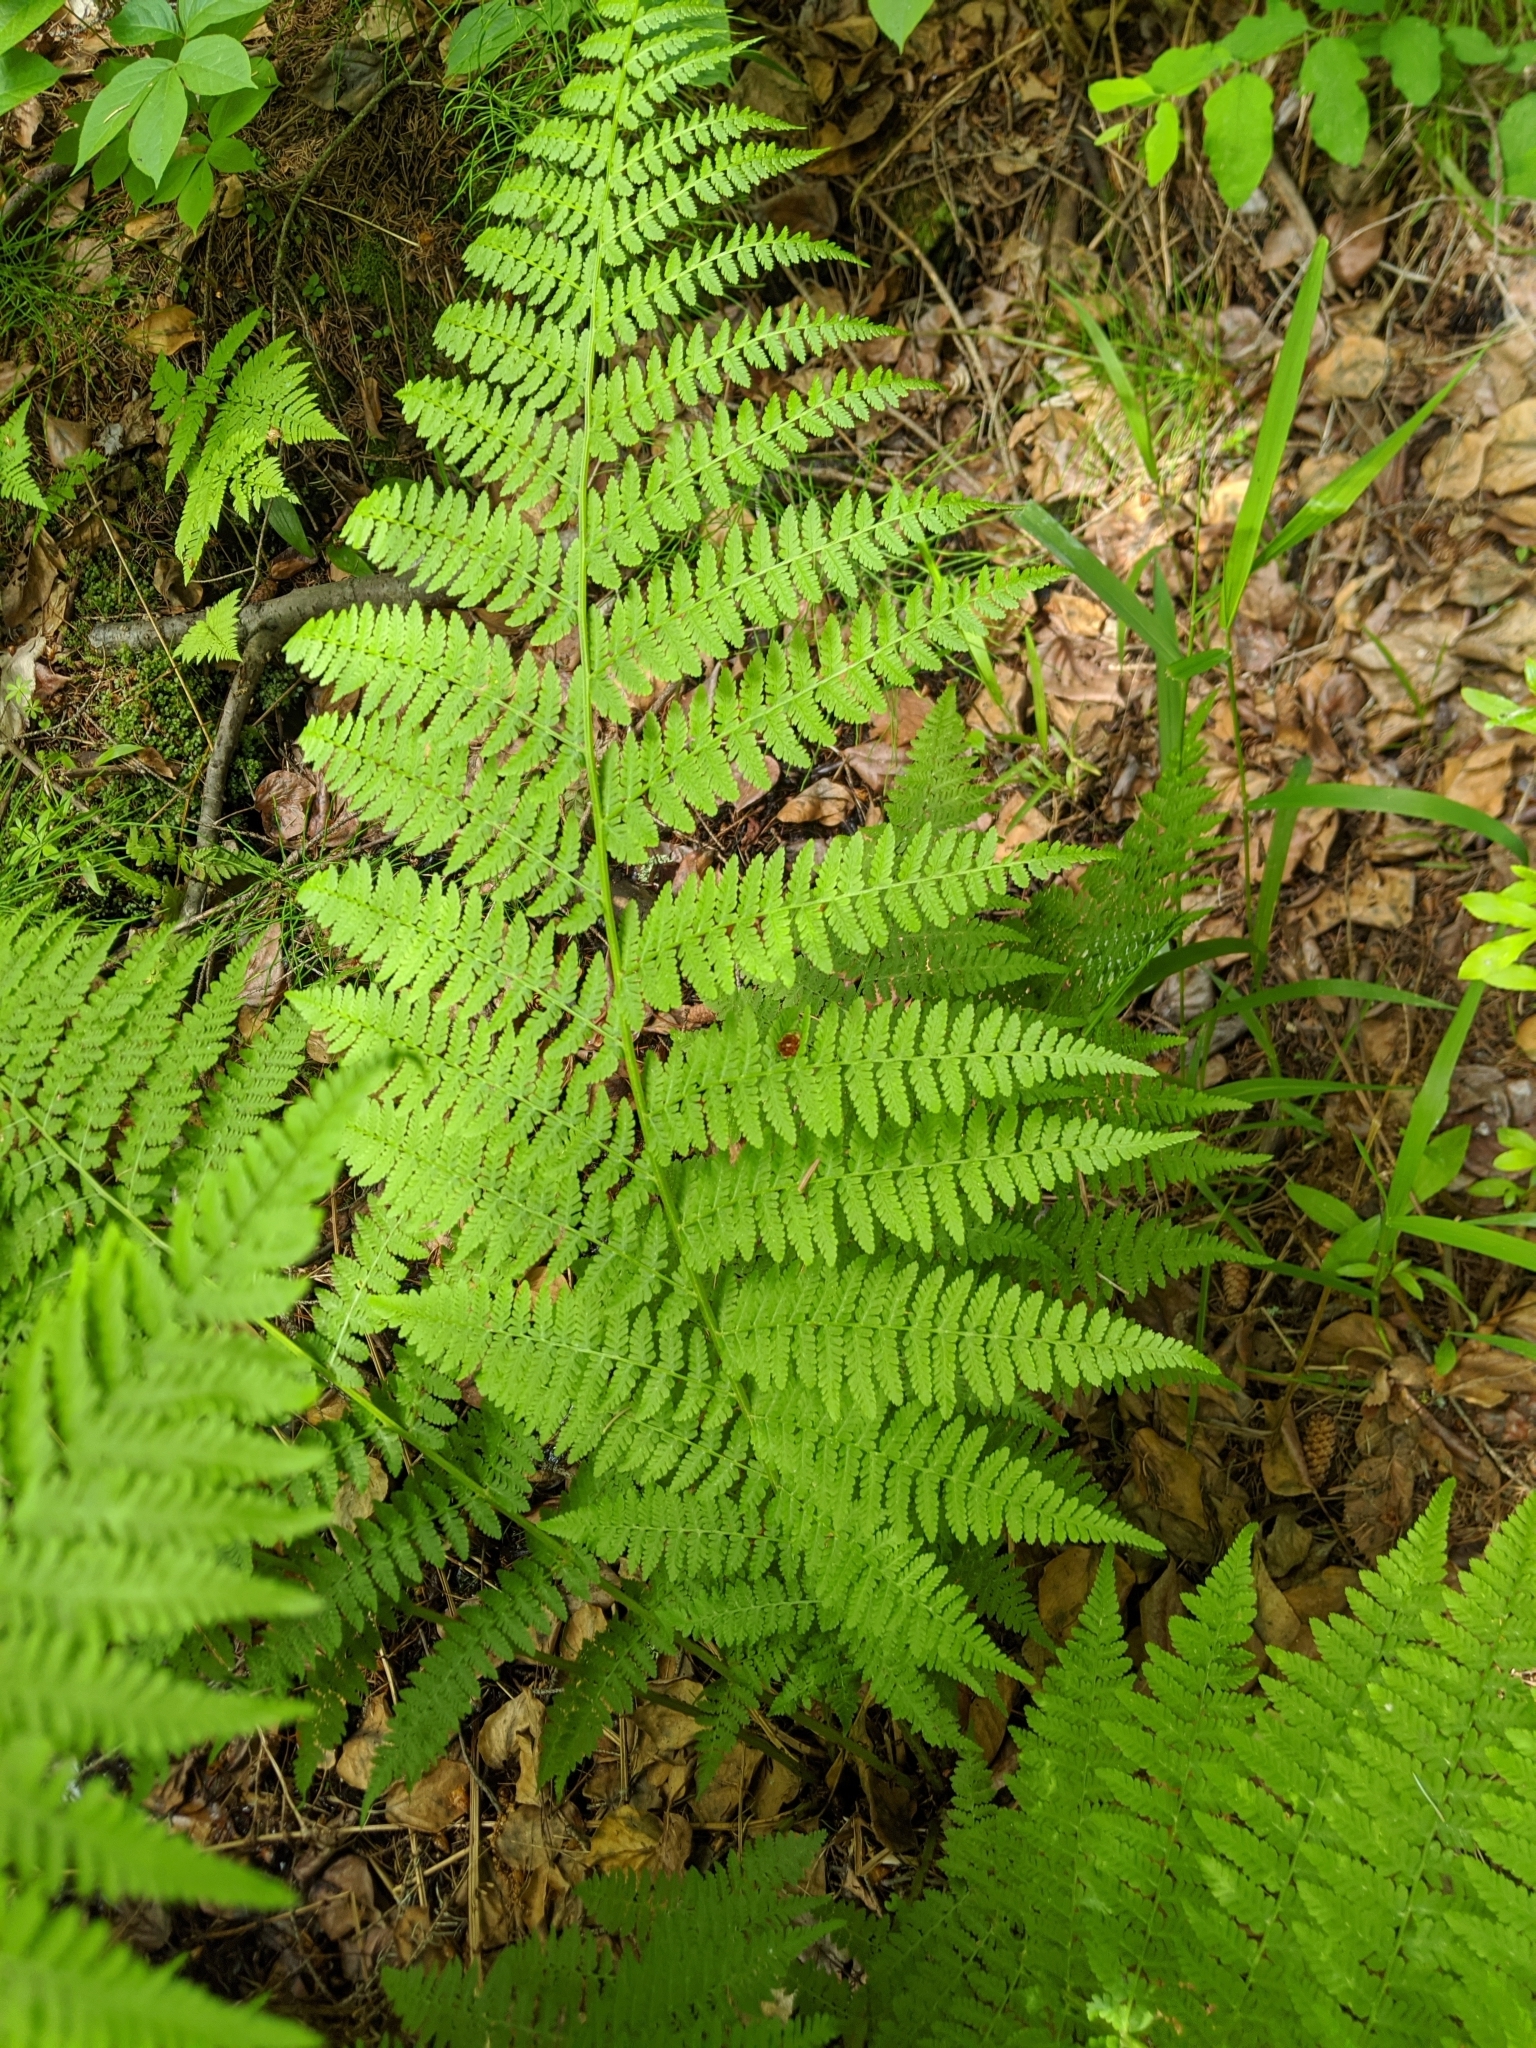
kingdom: Plantae
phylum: Tracheophyta
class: Polypodiopsida
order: Polypodiales
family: Athyriaceae
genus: Athyrium
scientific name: Athyrium filix-femina
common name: Lady fern
